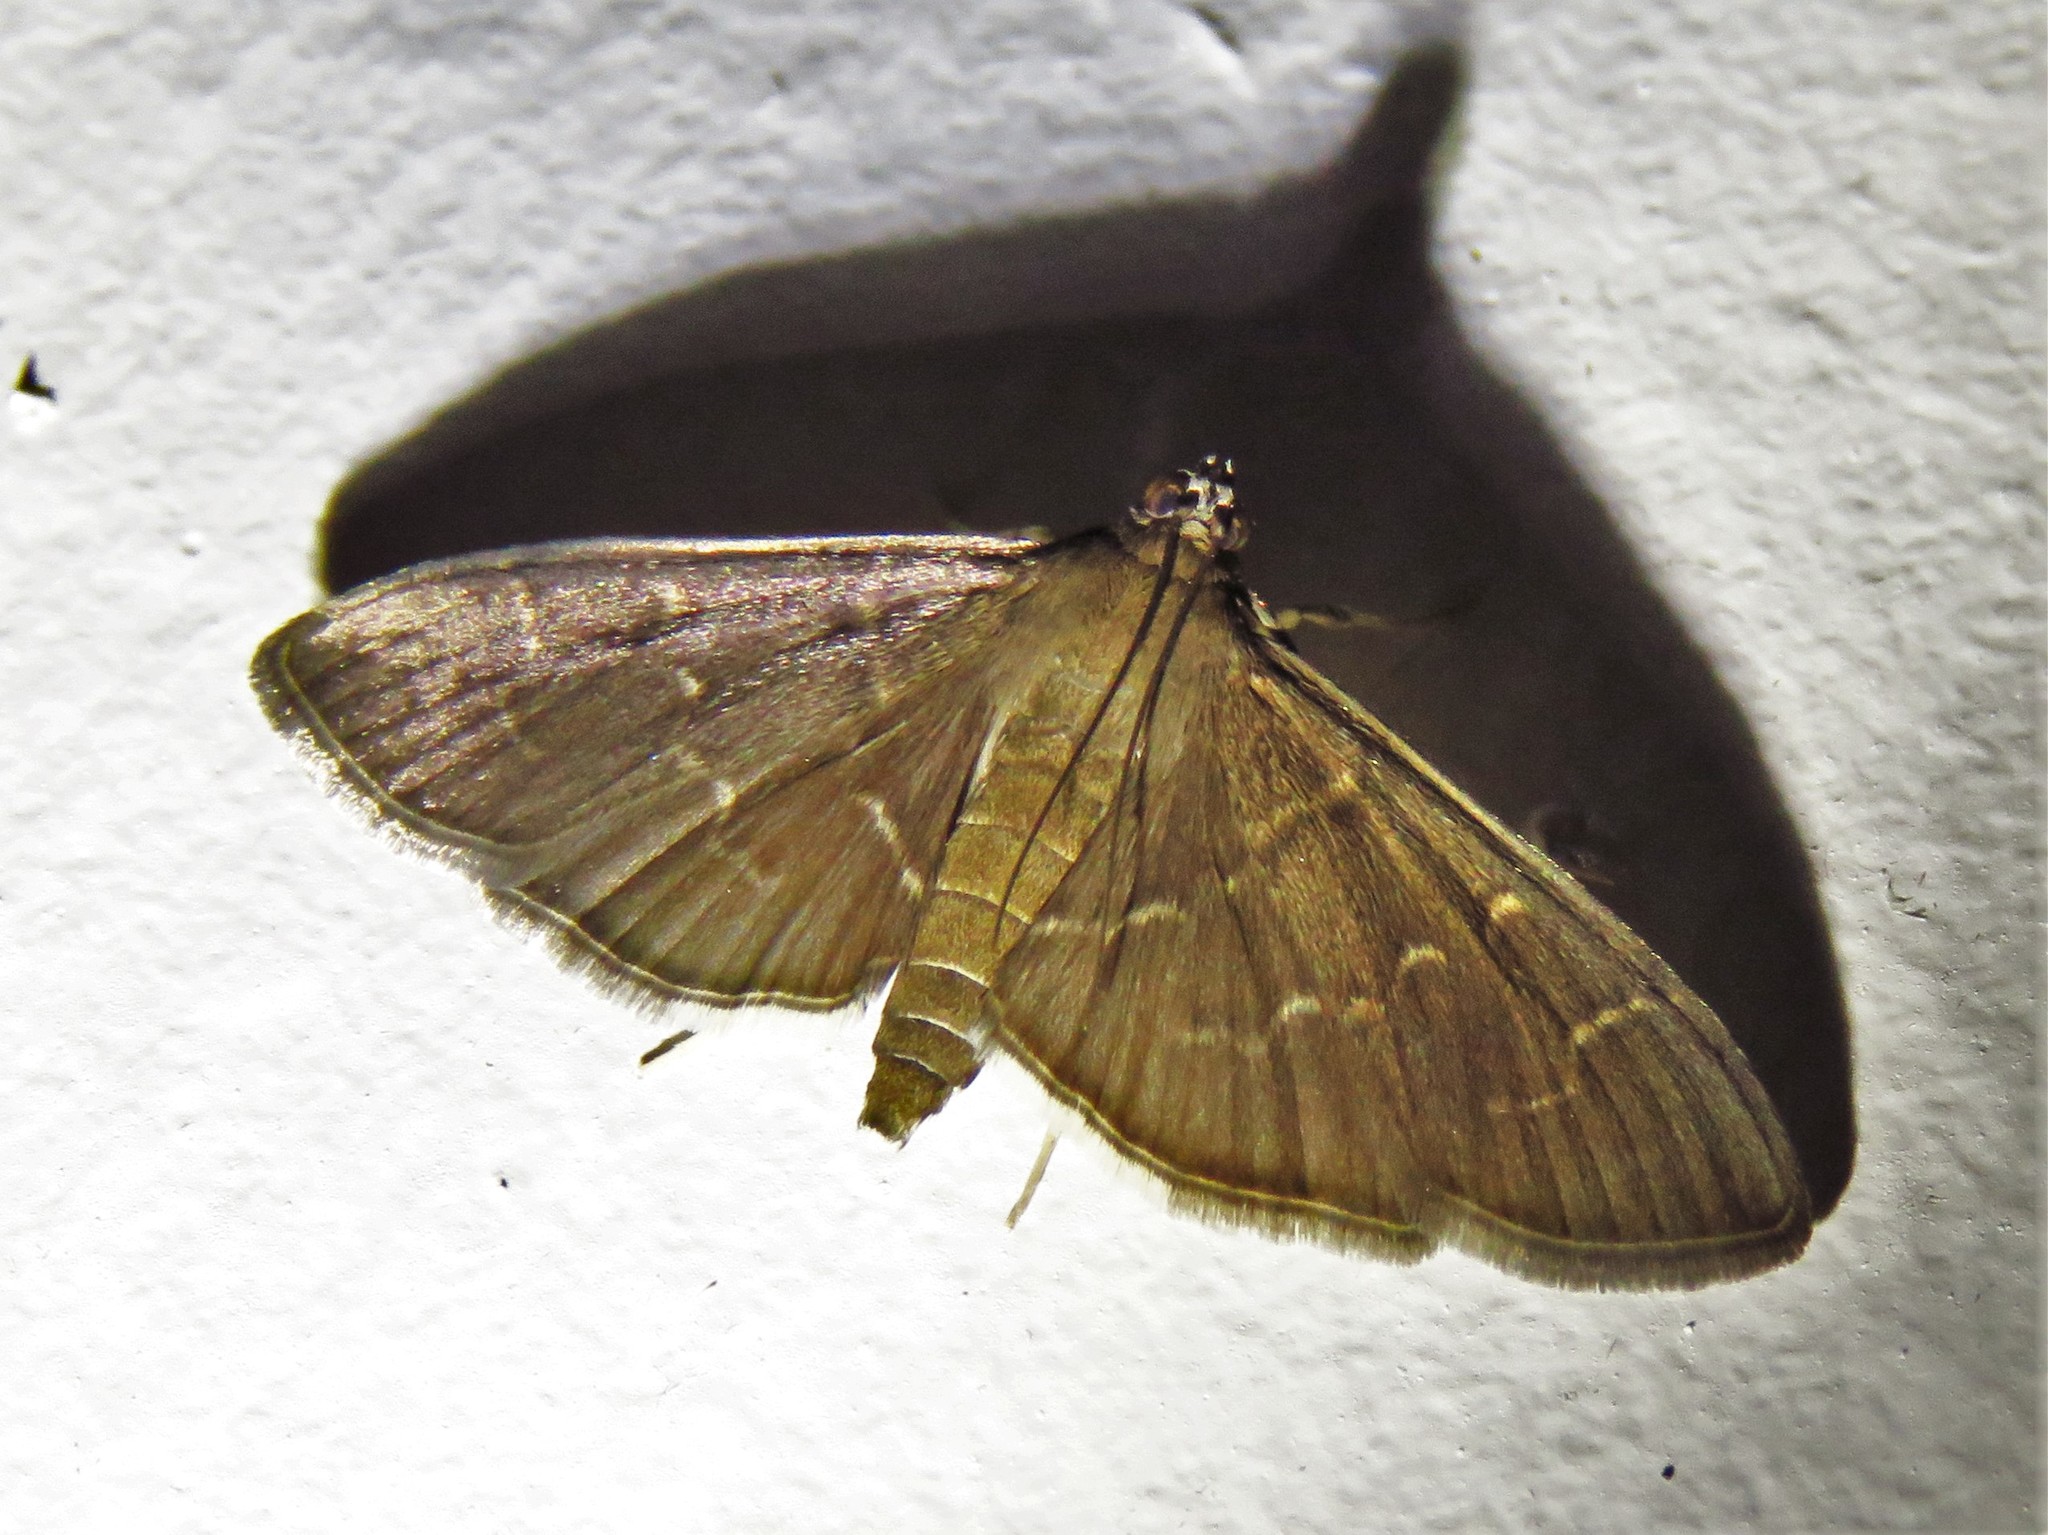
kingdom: Animalia
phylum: Arthropoda
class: Insecta
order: Lepidoptera
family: Crambidae
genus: Pilocrocis
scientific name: Pilocrocis ramentalis
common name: Scraped pilocrocis
